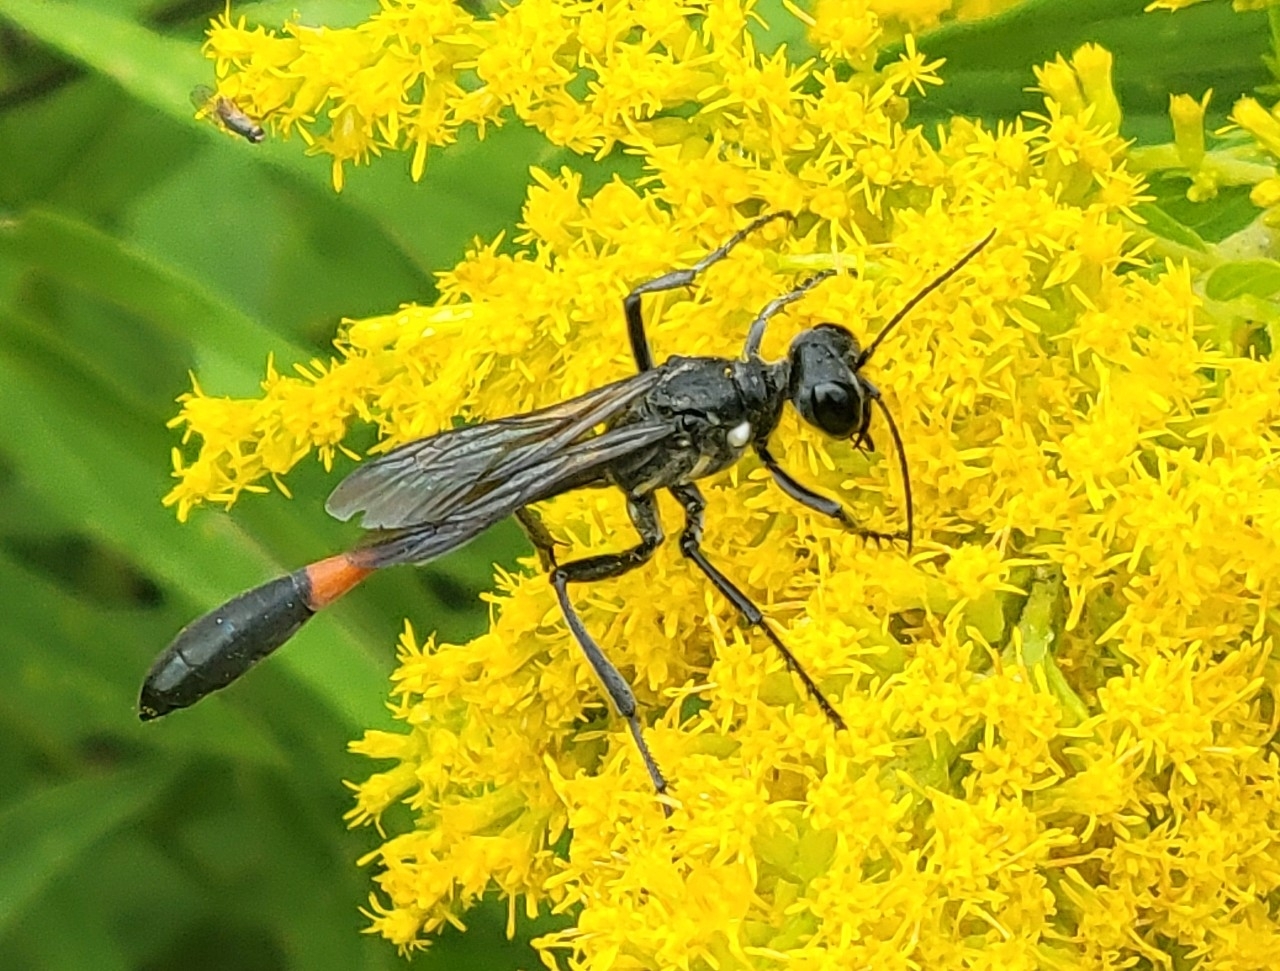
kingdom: Animalia
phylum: Arthropoda
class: Insecta
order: Hymenoptera
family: Sphecidae
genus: Ammophila
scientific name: Ammophila procera
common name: Common thread-waisted wasp
